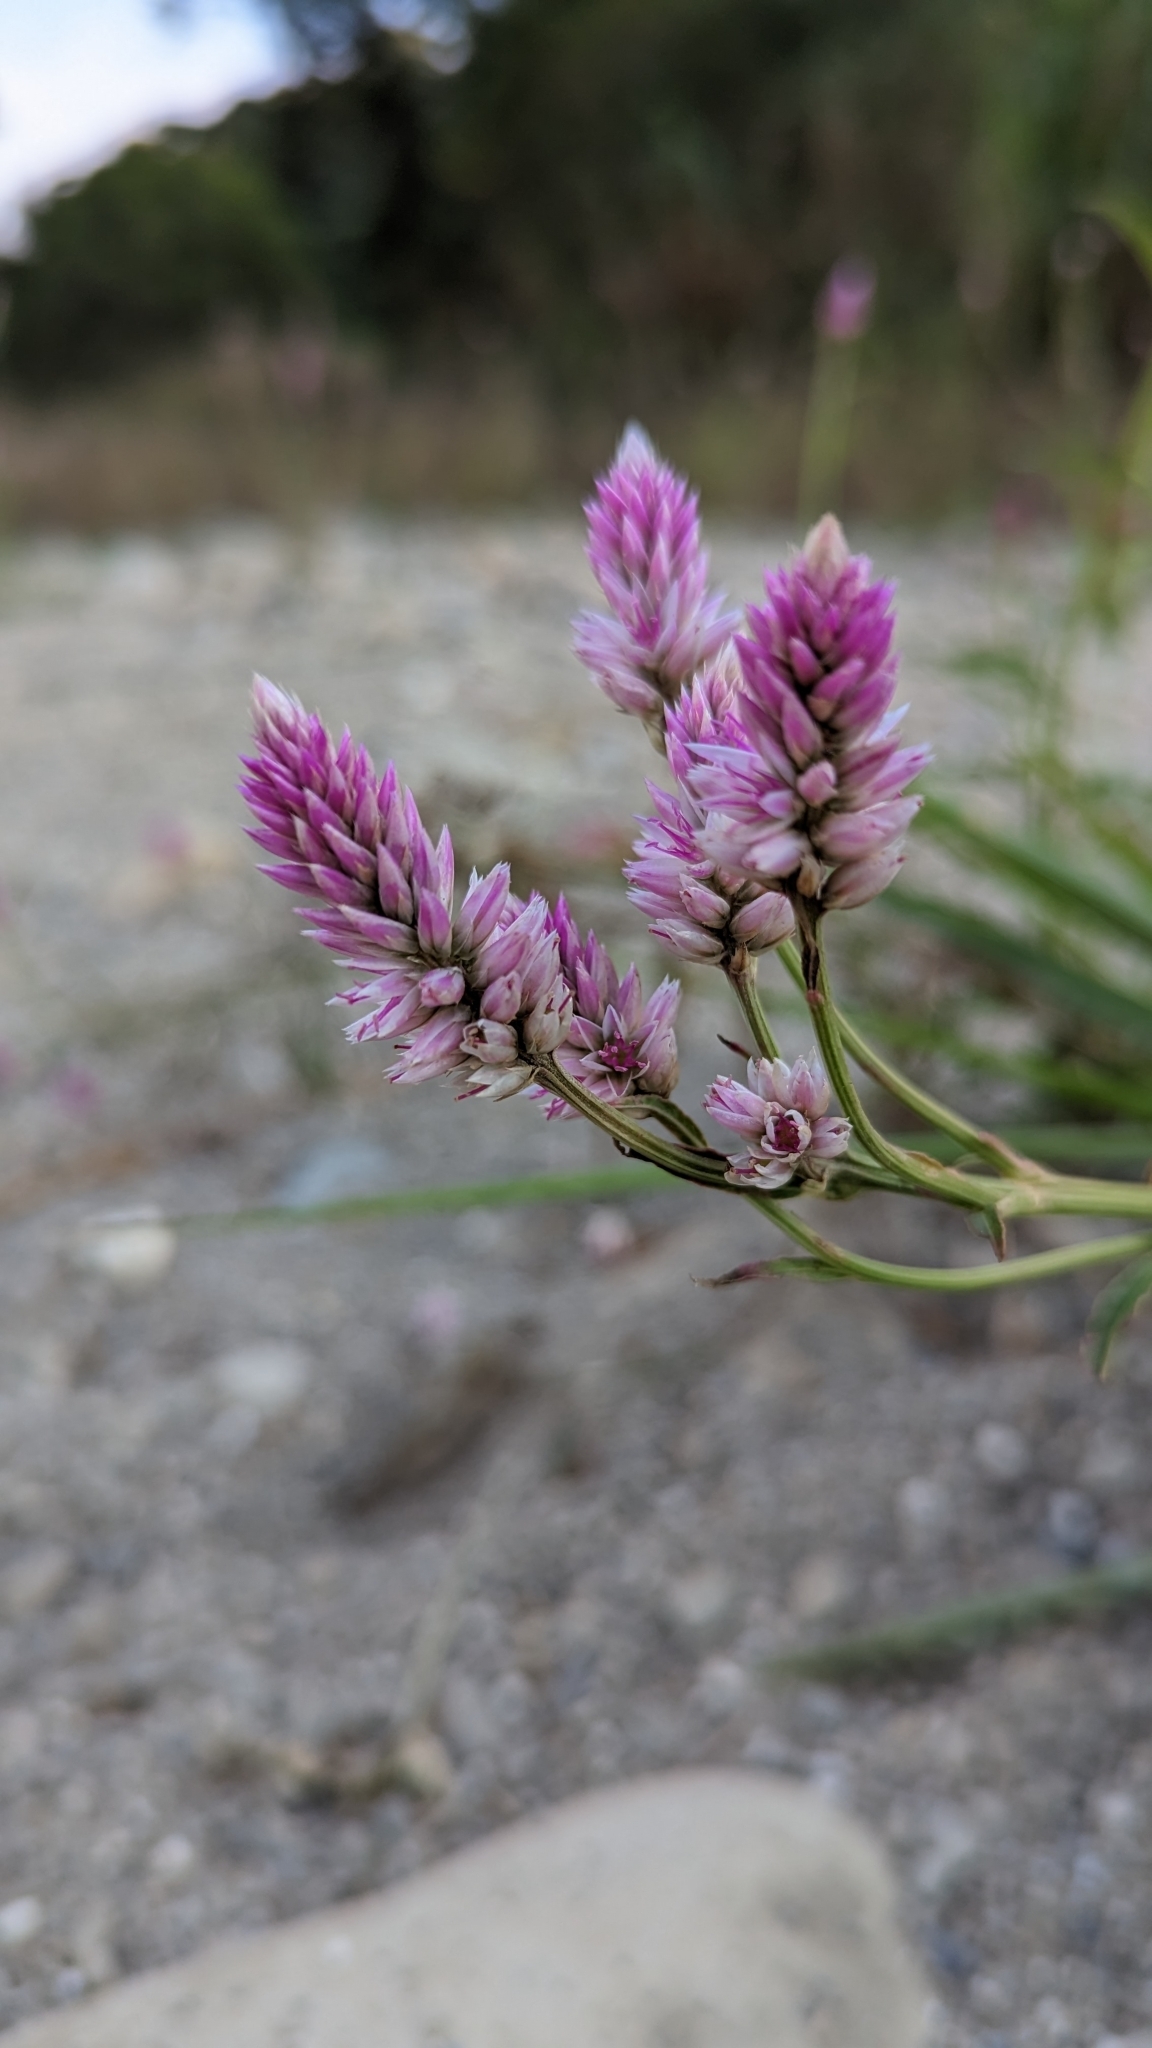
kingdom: Plantae
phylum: Tracheophyta
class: Magnoliopsida
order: Caryophyllales
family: Amaranthaceae
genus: Celosia
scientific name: Celosia argentea
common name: Feather cockscomb
